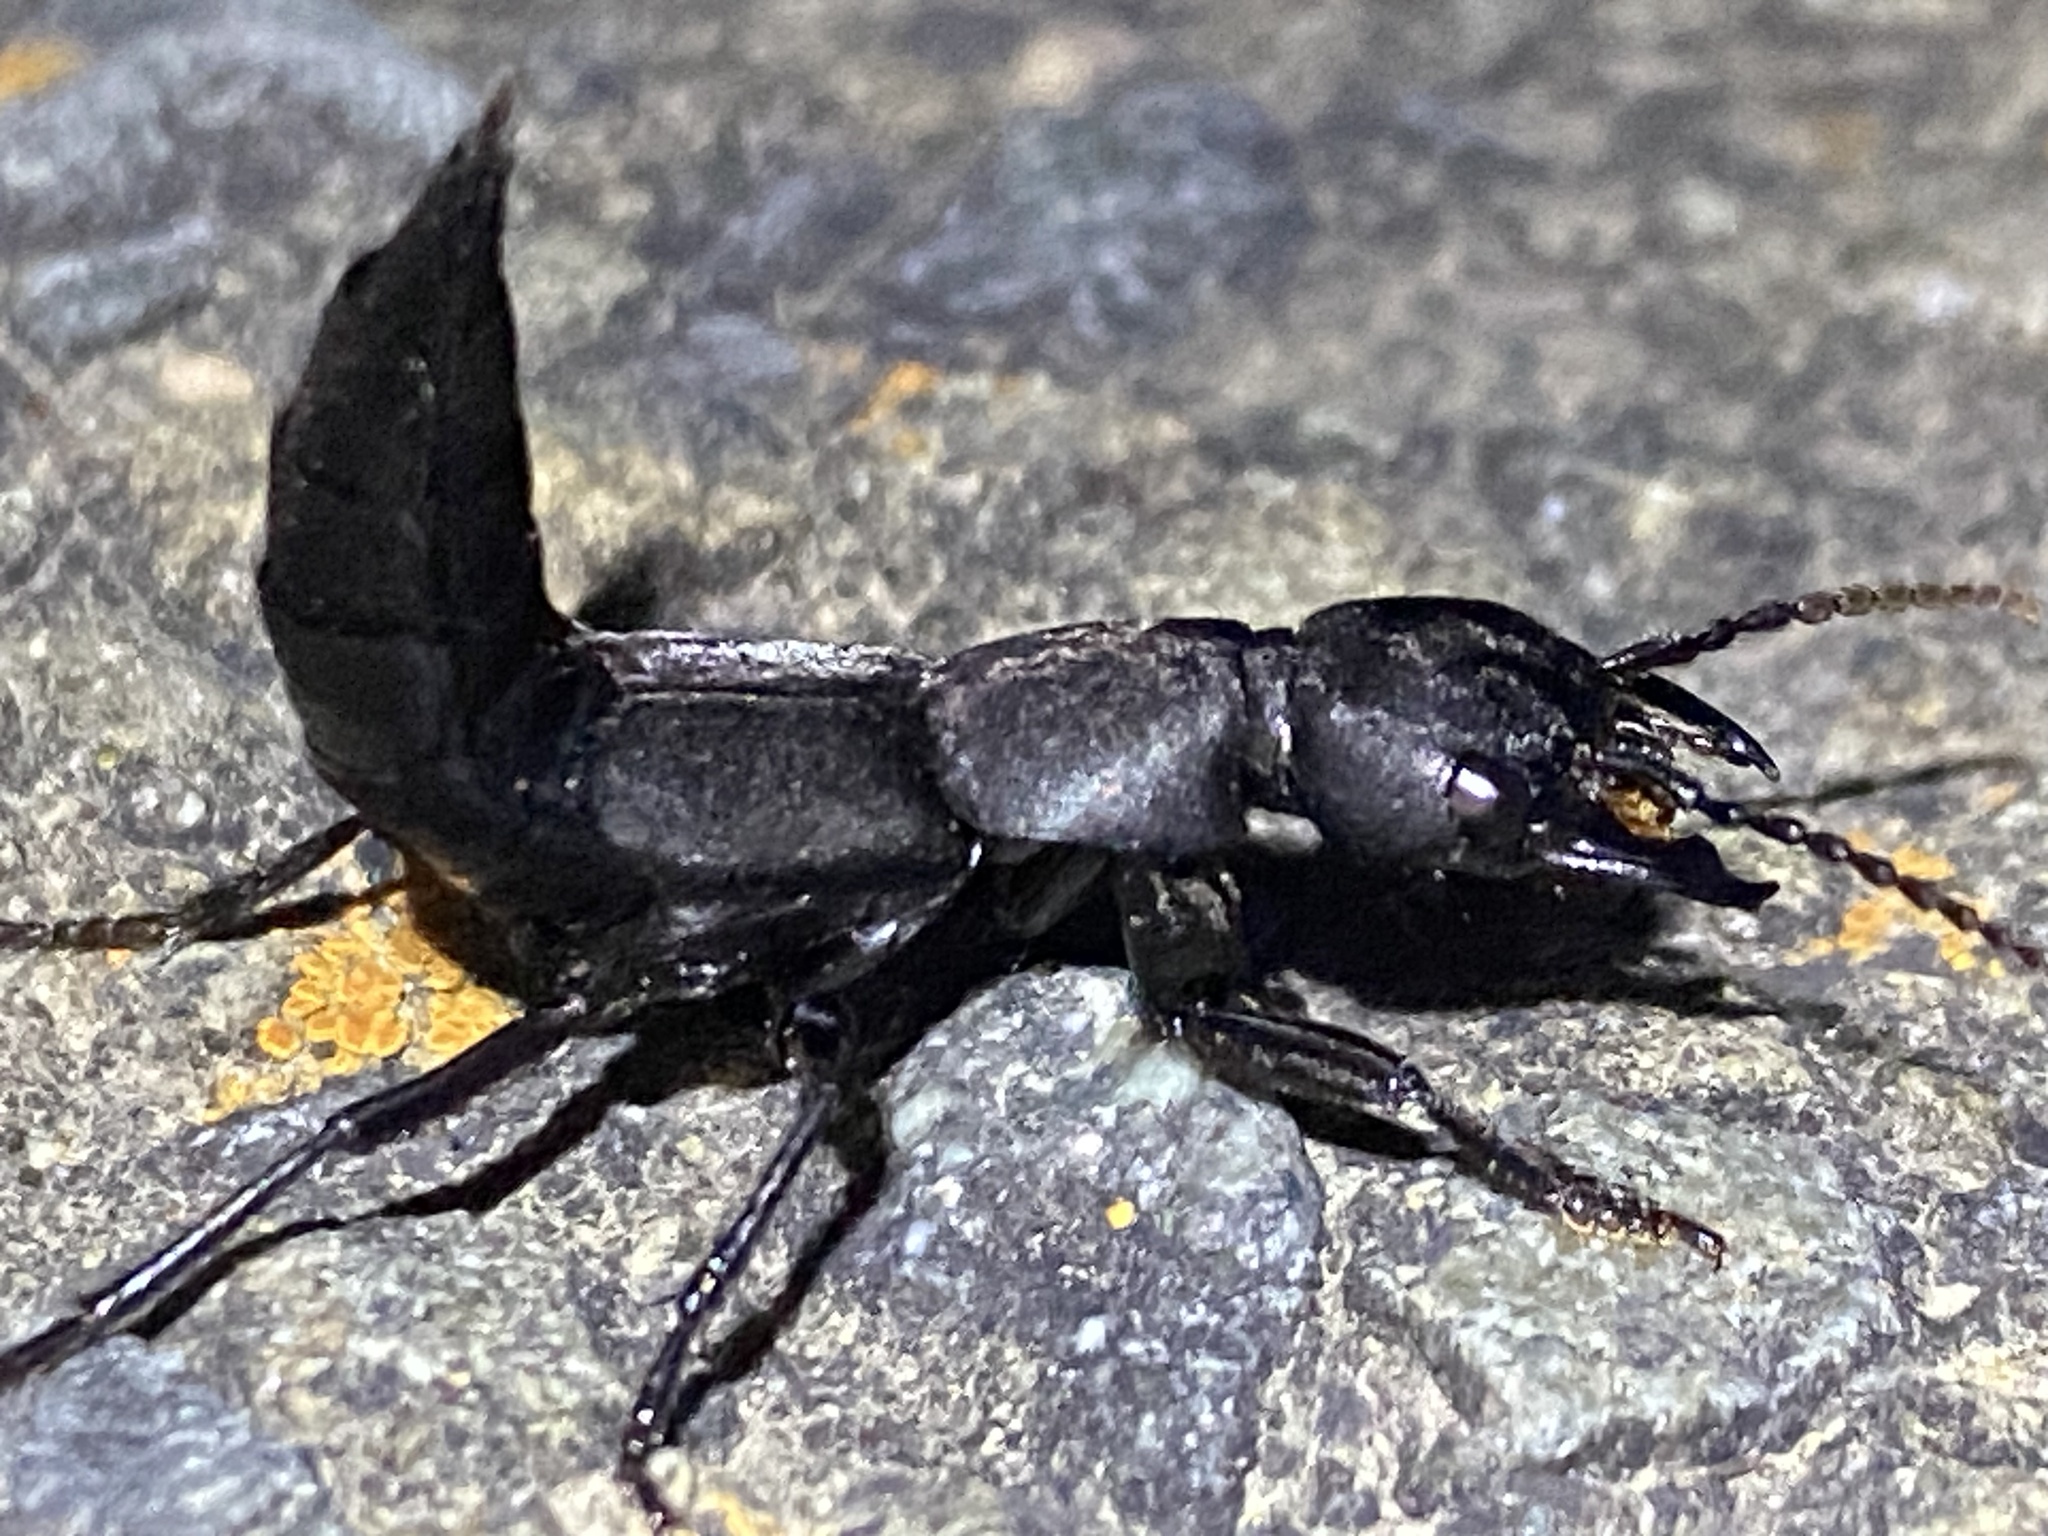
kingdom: Animalia
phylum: Arthropoda
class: Insecta
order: Coleoptera
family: Staphylinidae
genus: Ocypus
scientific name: Ocypus olens
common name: Devil's coach-horse
